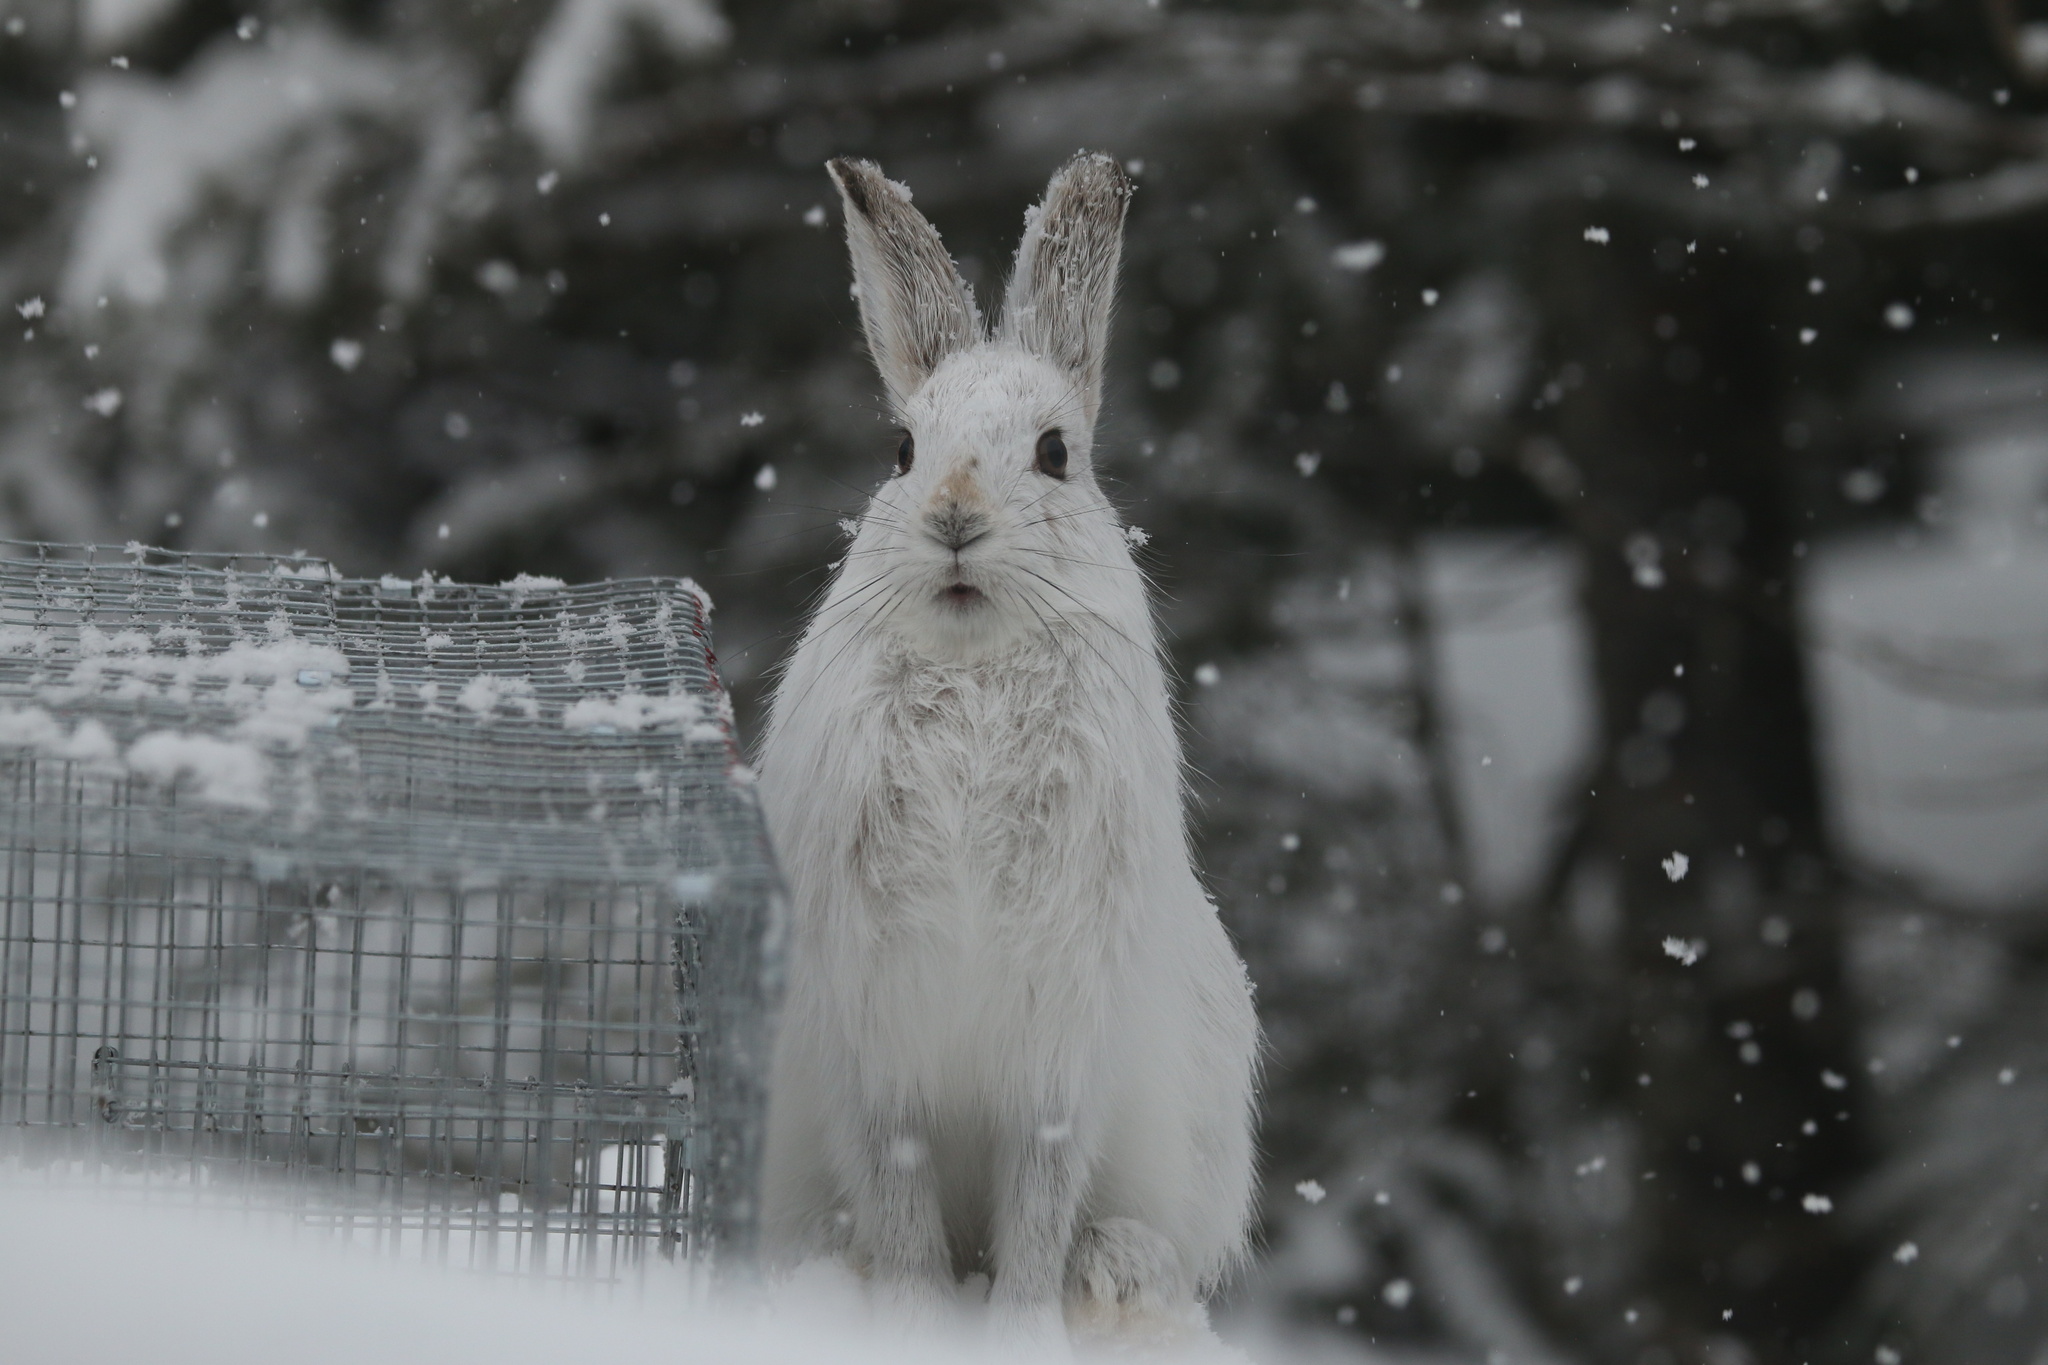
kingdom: Animalia
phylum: Chordata
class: Mammalia
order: Lagomorpha
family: Leporidae
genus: Lepus
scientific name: Lepus americanus
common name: Snowshoe hare
